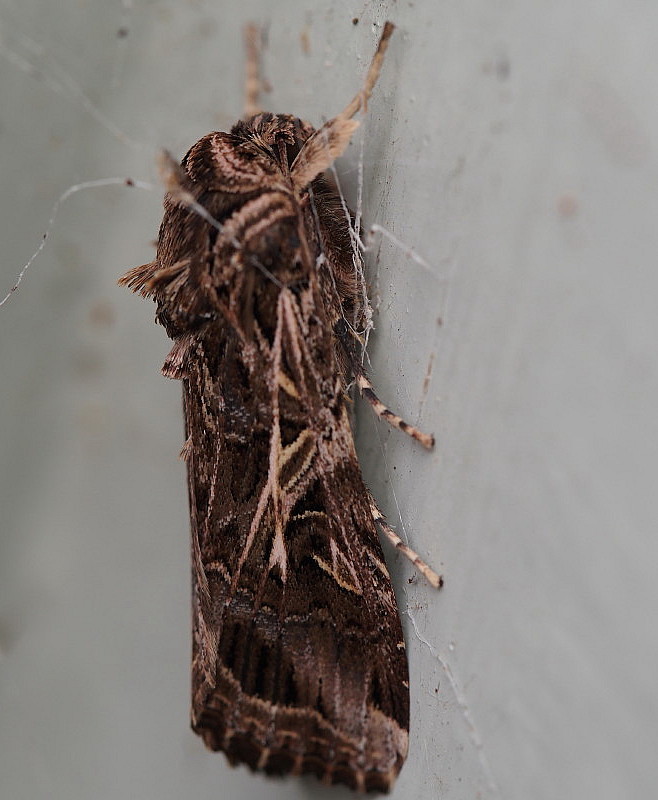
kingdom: Animalia
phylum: Arthropoda
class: Insecta
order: Lepidoptera
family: Noctuidae
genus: Spodoptera
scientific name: Spodoptera litura
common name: Asian cotton leafworm
